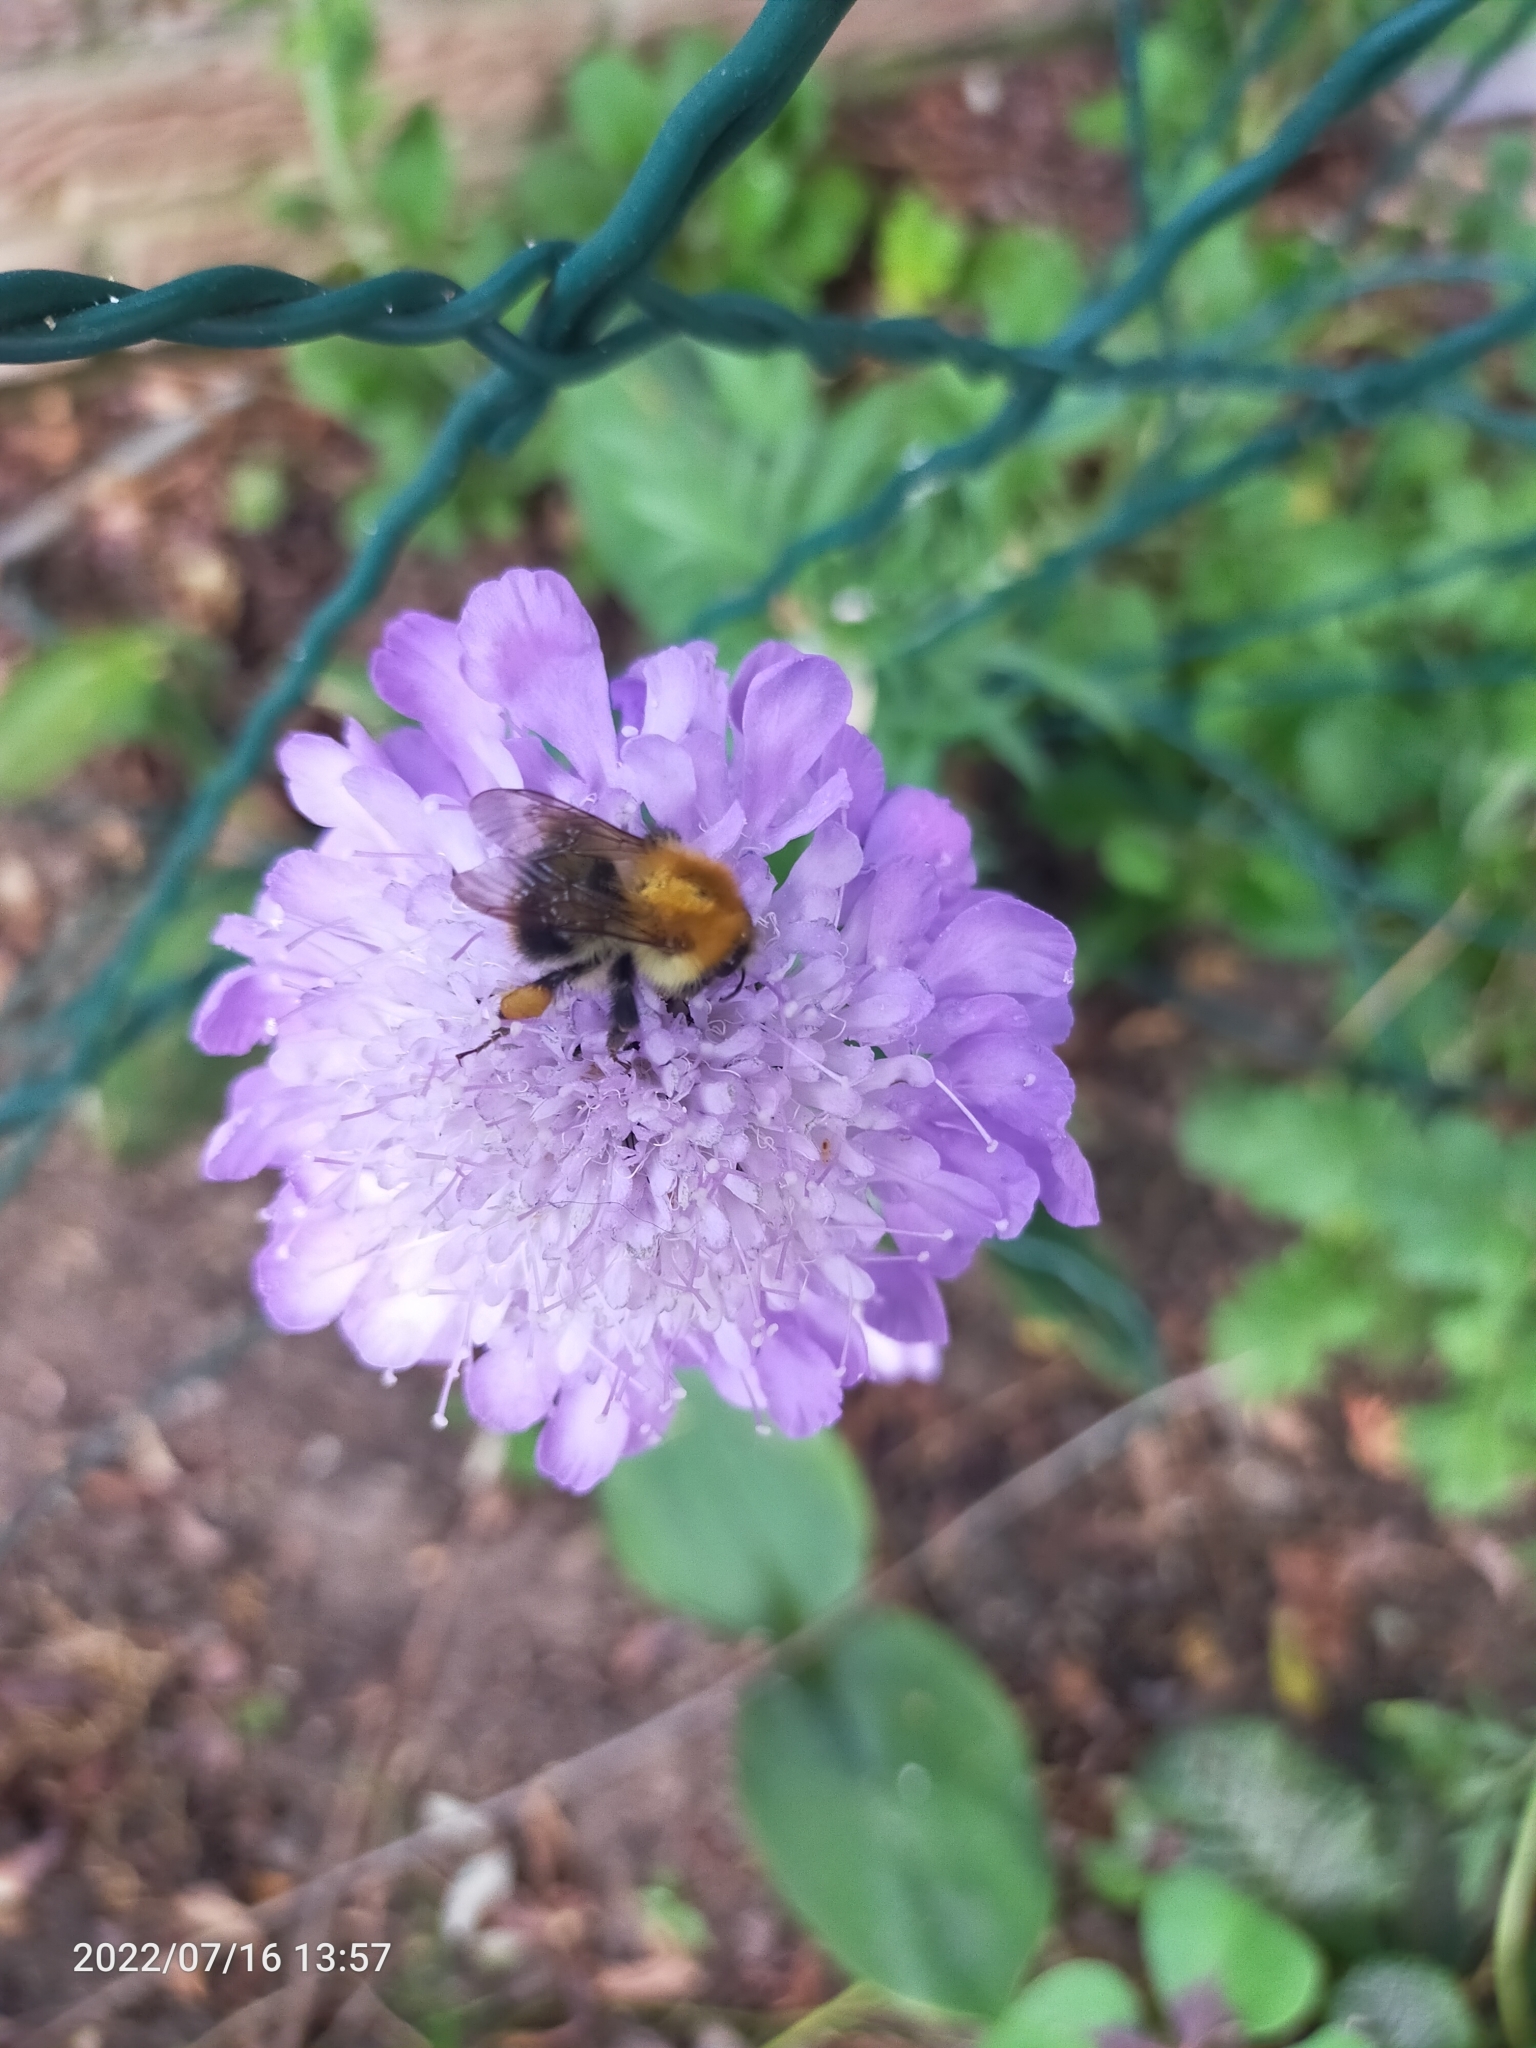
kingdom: Animalia
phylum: Arthropoda
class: Insecta
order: Hymenoptera
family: Apidae
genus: Bombus
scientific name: Bombus pascuorum
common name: Common carder bee
